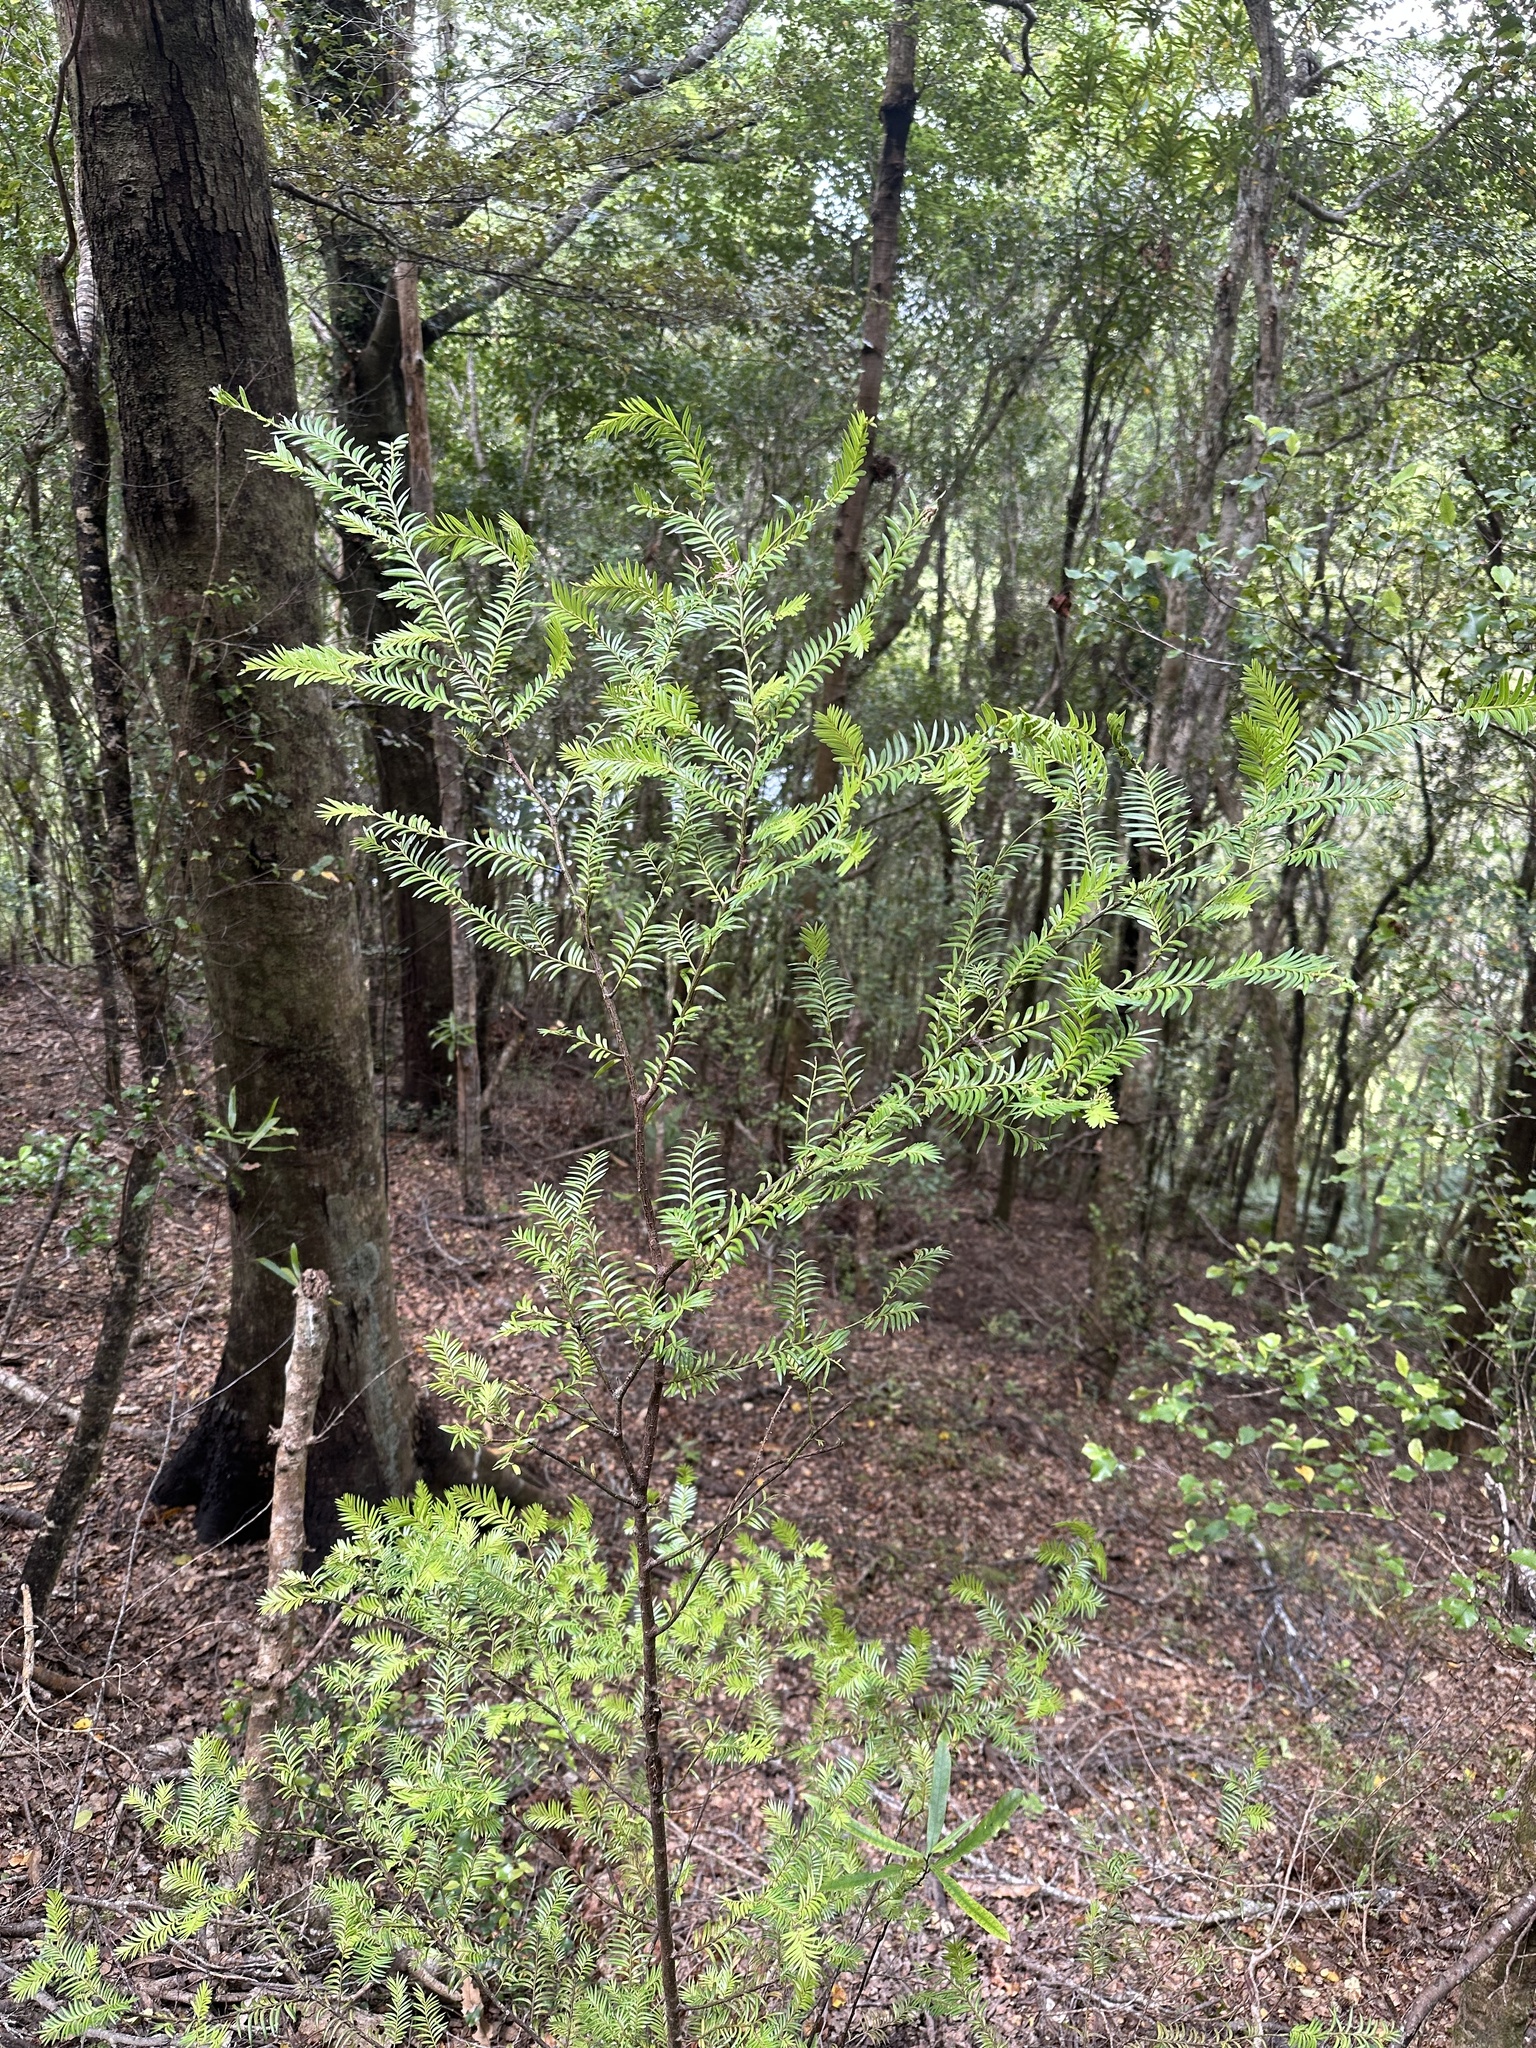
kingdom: Plantae
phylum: Tracheophyta
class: Pinopsida
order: Pinales
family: Podocarpaceae
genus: Prumnopitys
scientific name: Prumnopitys ferruginea
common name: Brown pine
